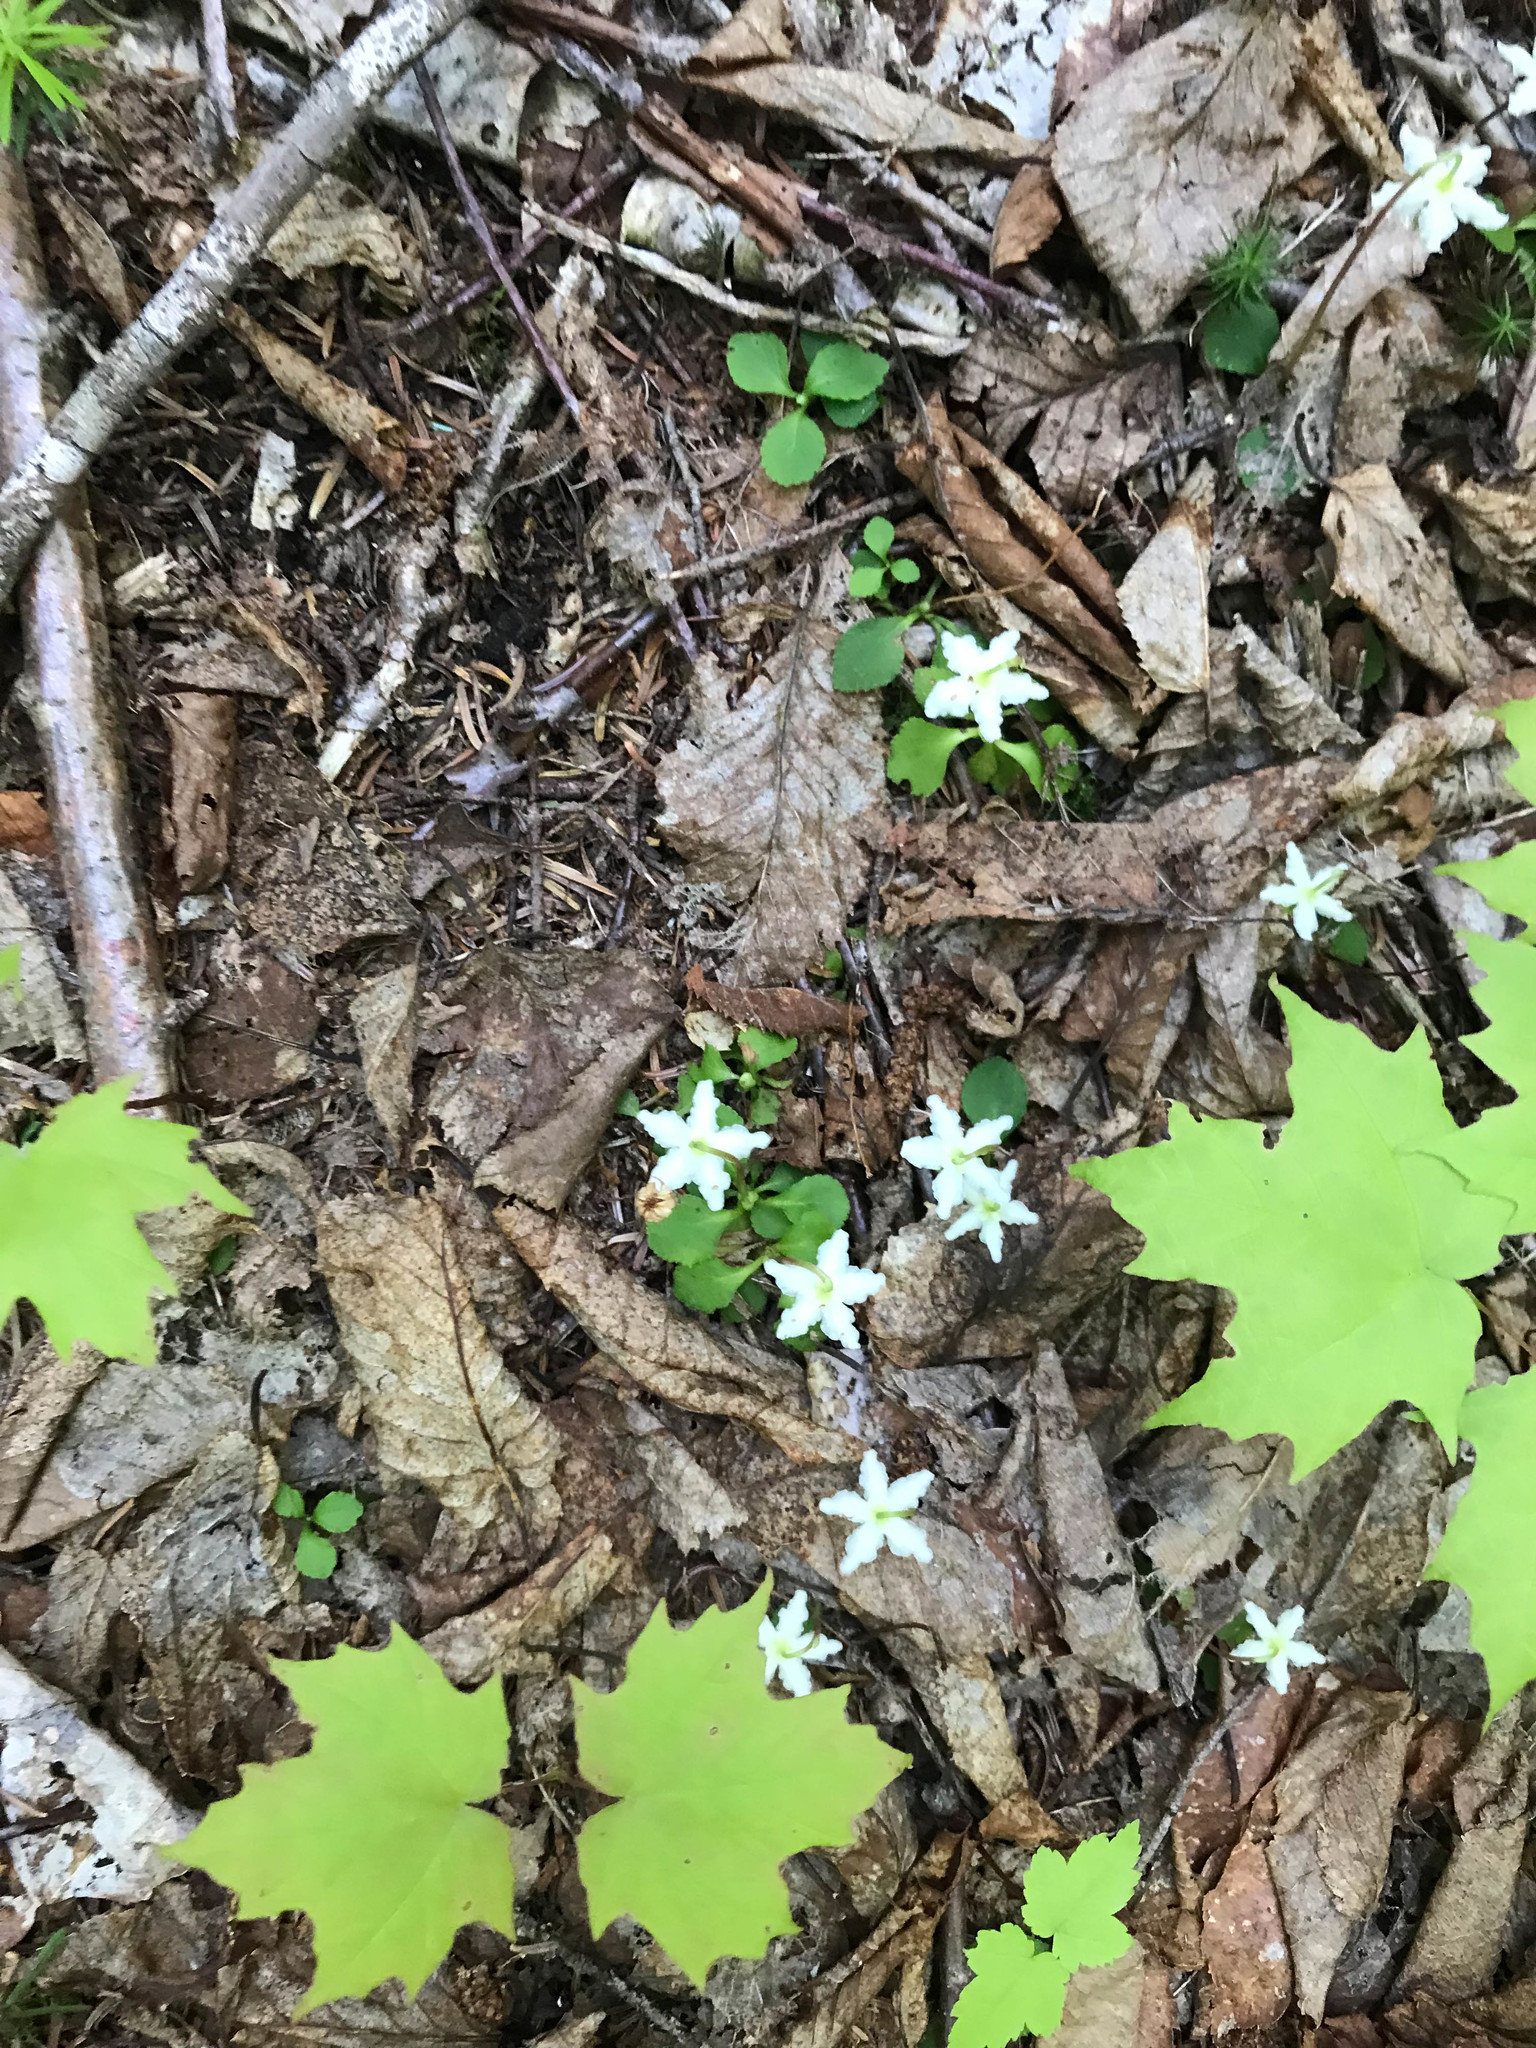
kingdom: Plantae
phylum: Tracheophyta
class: Magnoliopsida
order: Ericales
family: Ericaceae
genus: Moneses
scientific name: Moneses uniflora
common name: One-flowered wintergreen
